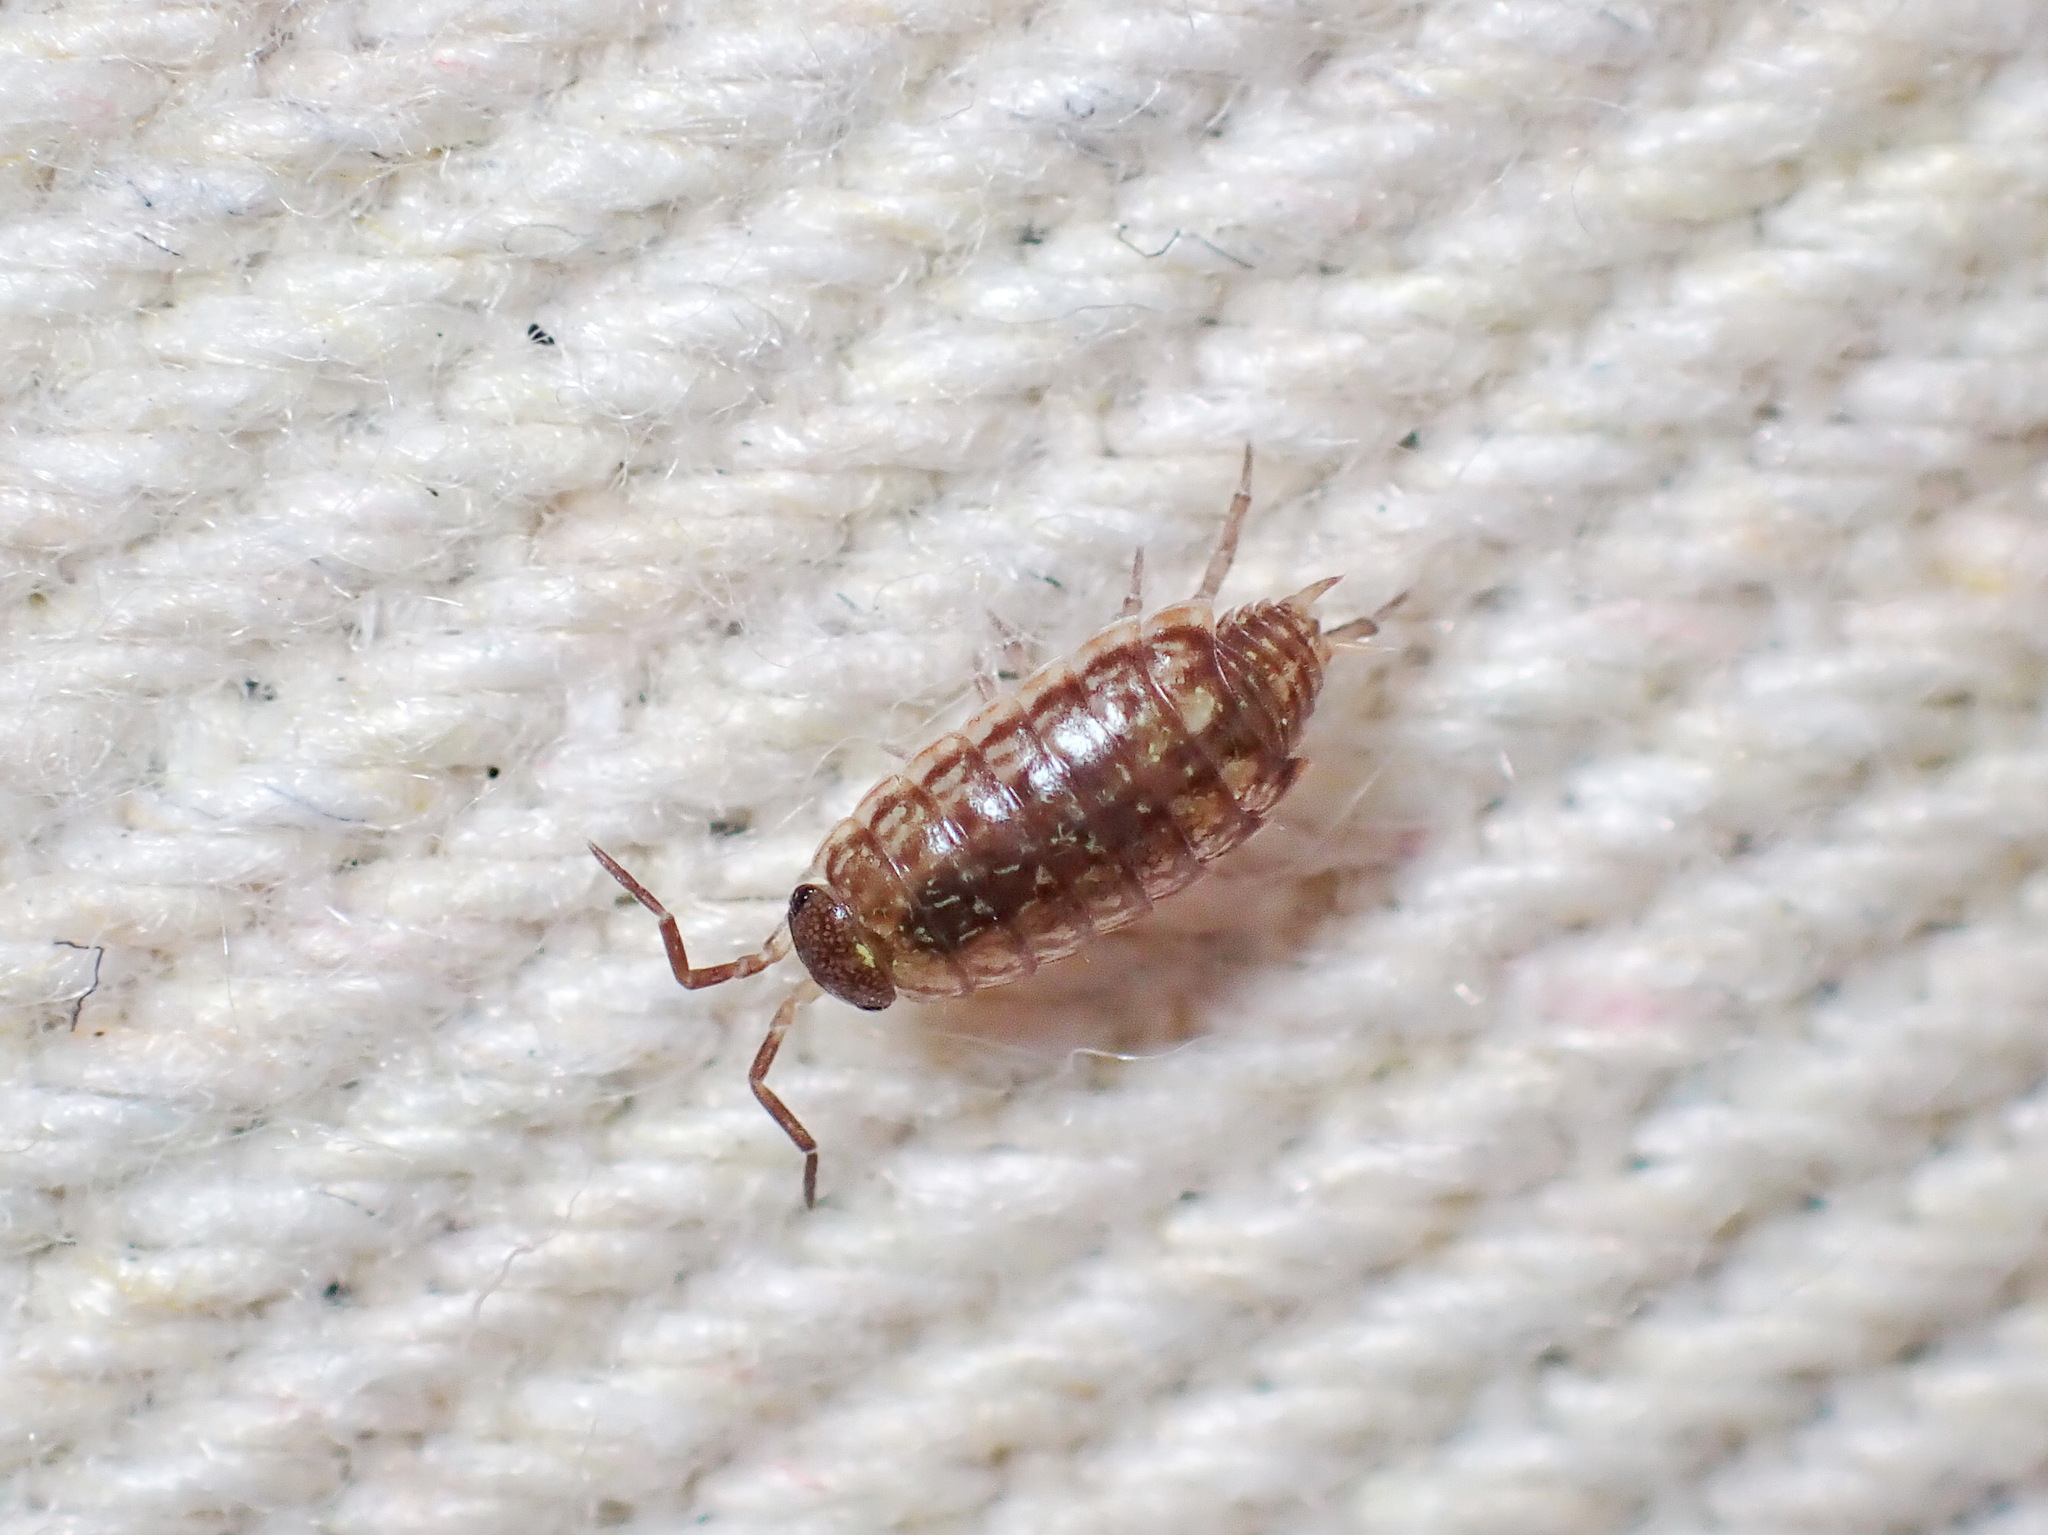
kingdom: Animalia
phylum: Arthropoda
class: Malacostraca
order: Isopoda
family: Philosciidae
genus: Philoscia
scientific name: Philoscia muscorum
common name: Common striped woodlouse
